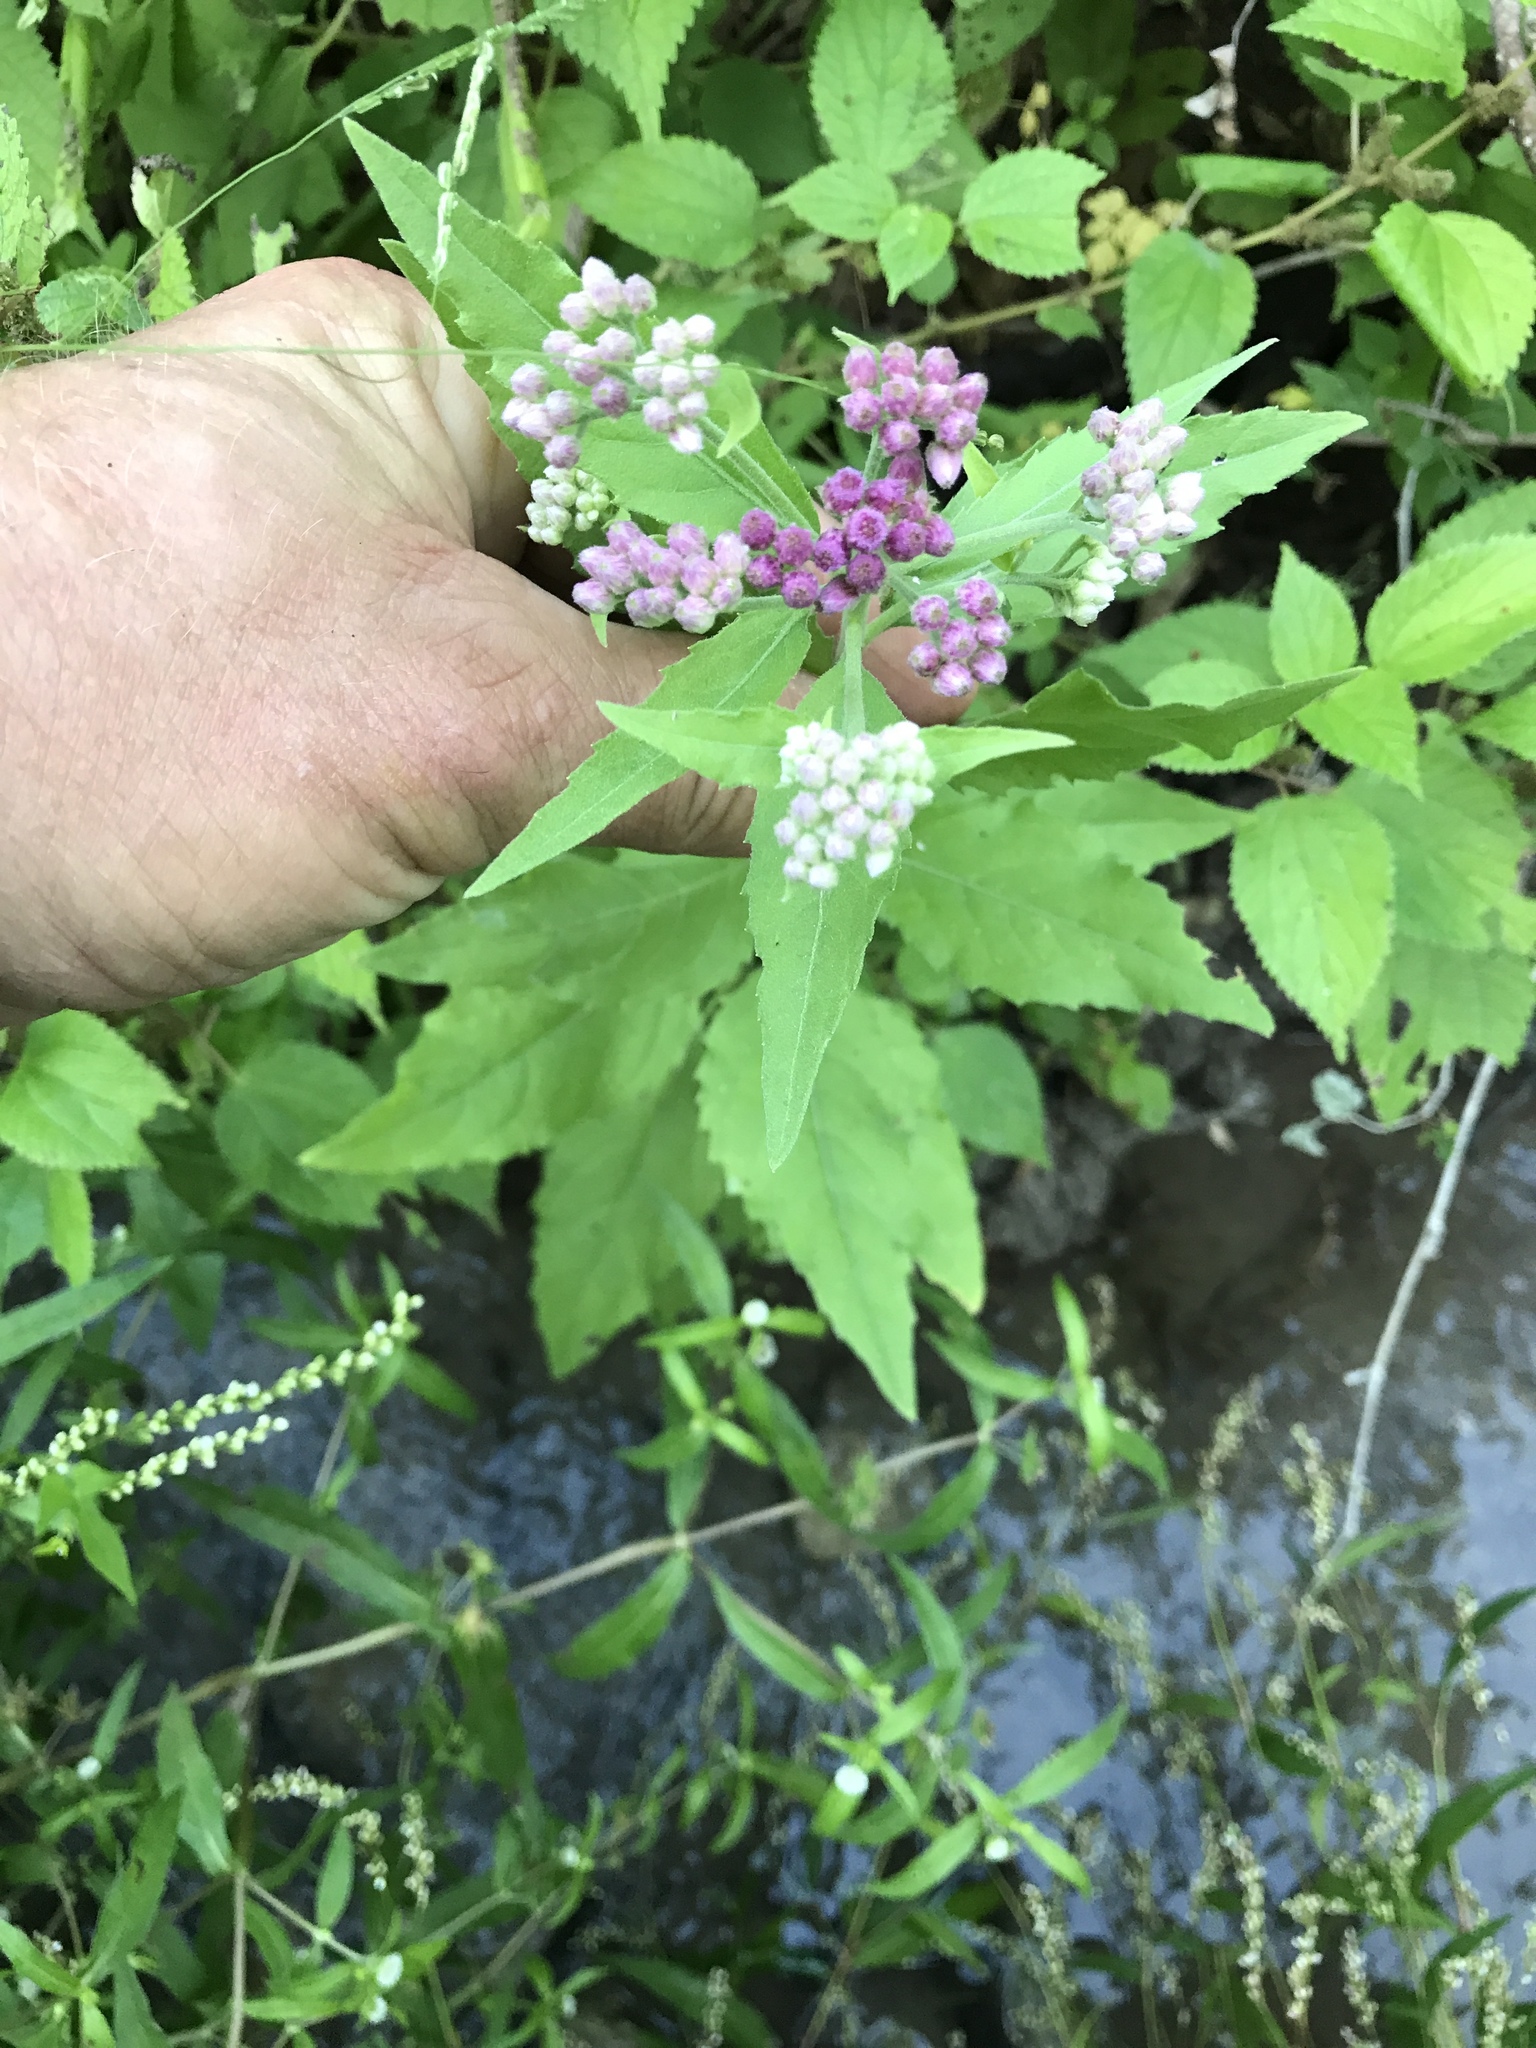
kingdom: Plantae
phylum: Tracheophyta
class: Magnoliopsida
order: Asterales
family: Asteraceae
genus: Pluchea
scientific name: Pluchea odorata
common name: Saltmarsh fleabane
